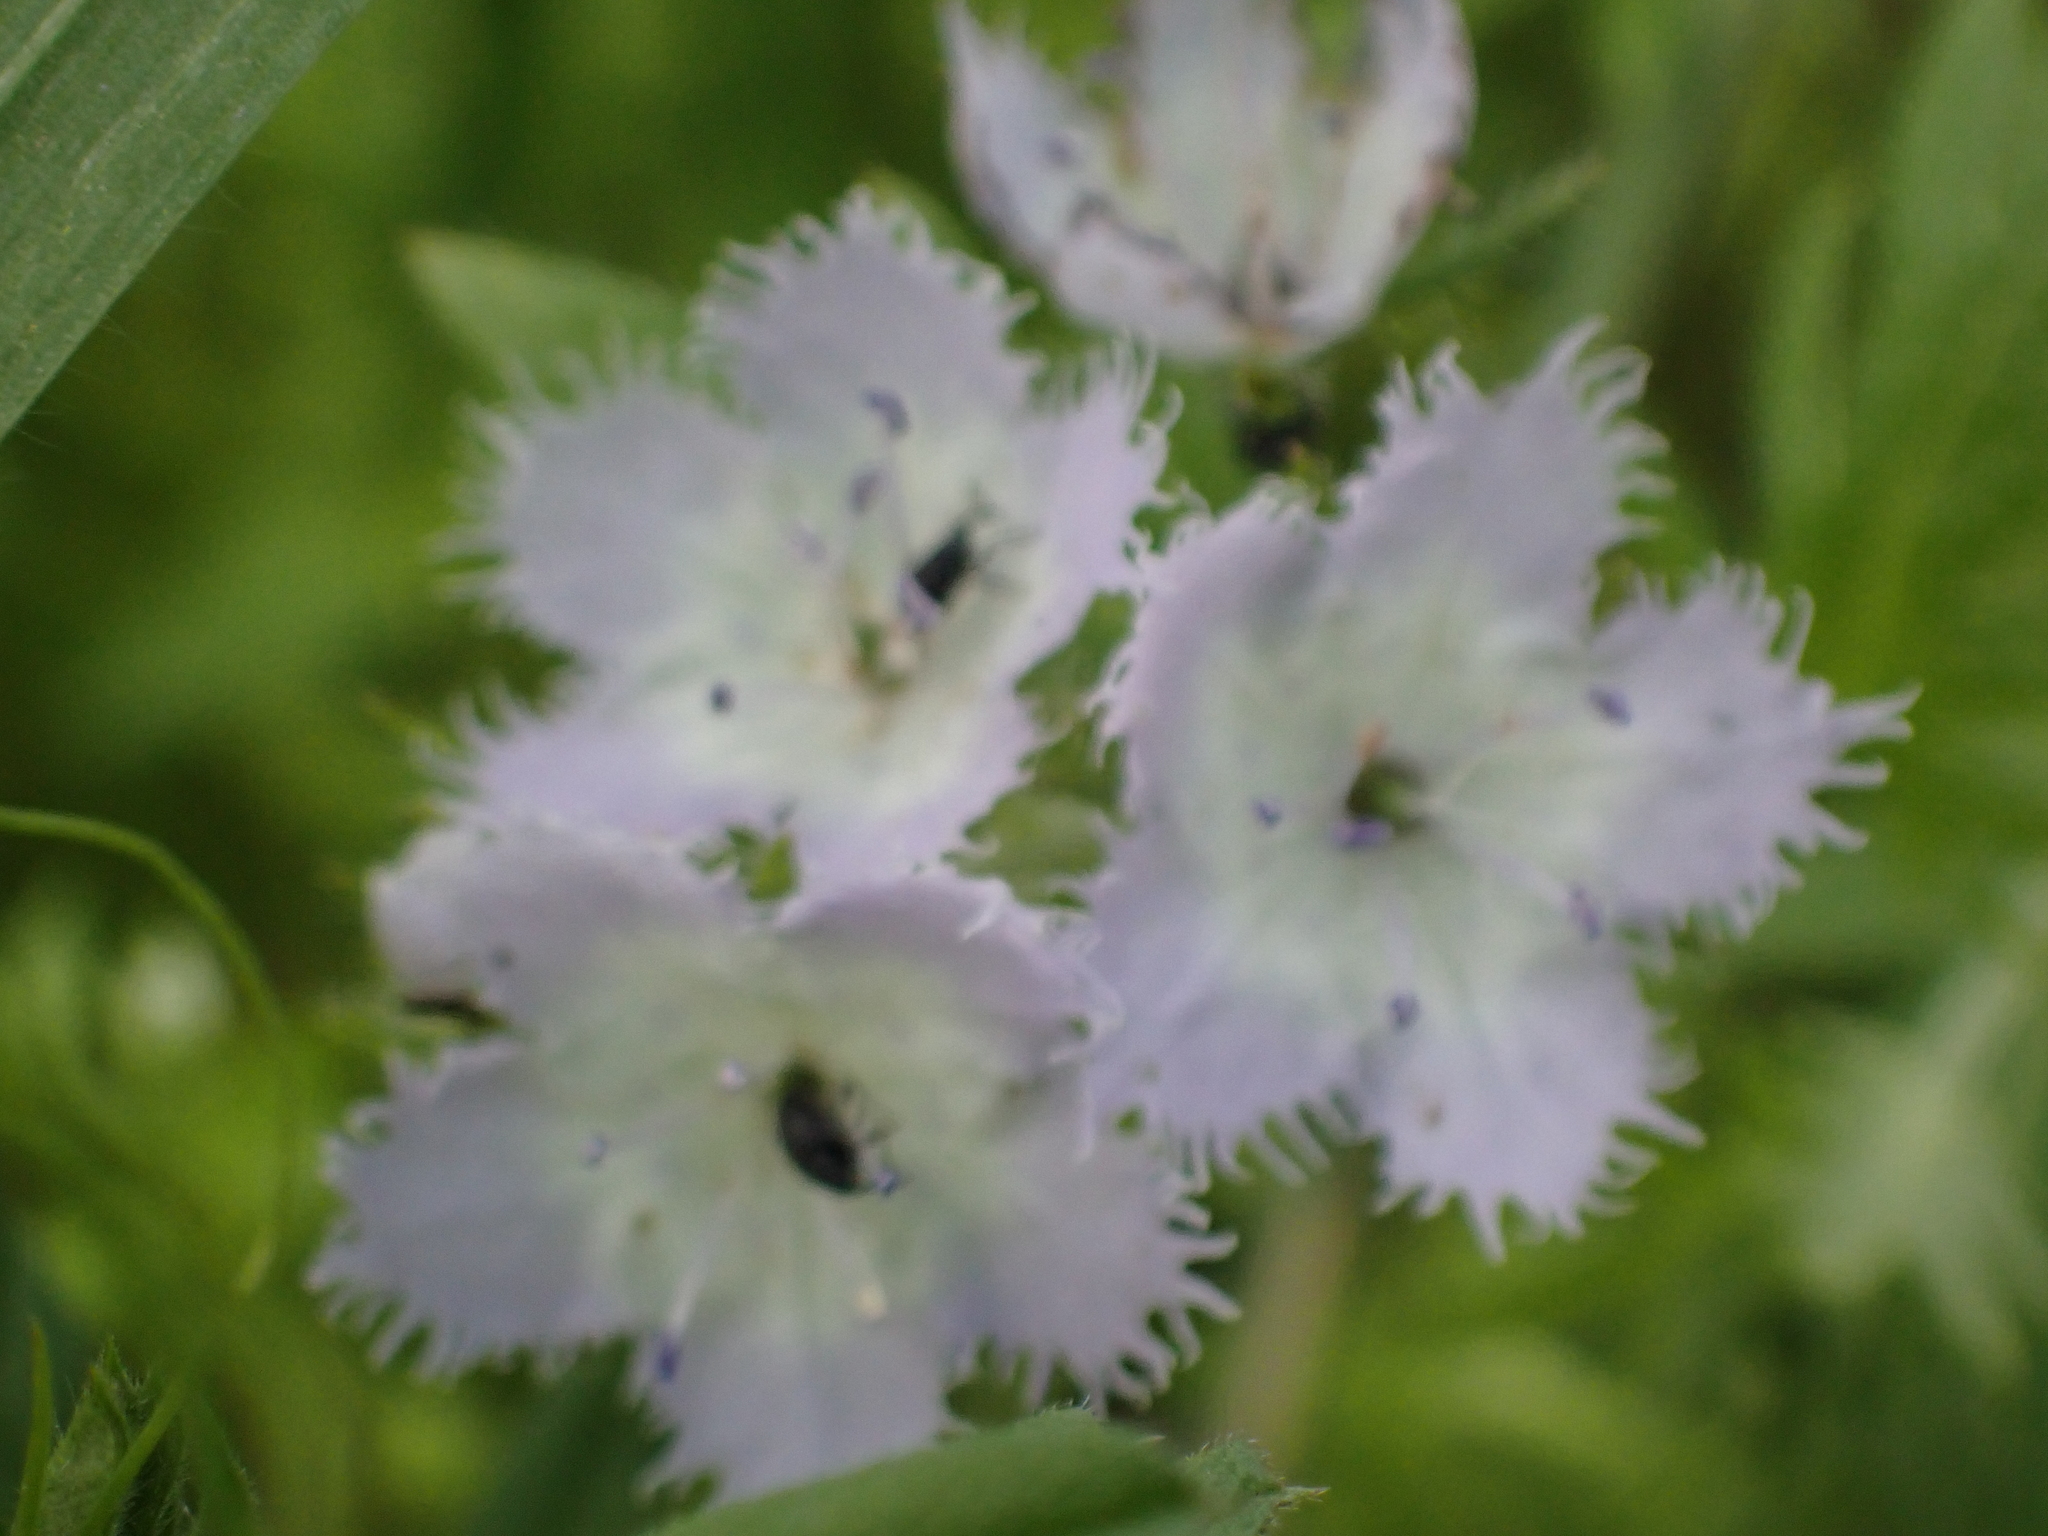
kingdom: Plantae
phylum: Tracheophyta
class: Magnoliopsida
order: Boraginales
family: Hydrophyllaceae
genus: Phacelia
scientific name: Phacelia purshii
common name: Miami-mist
